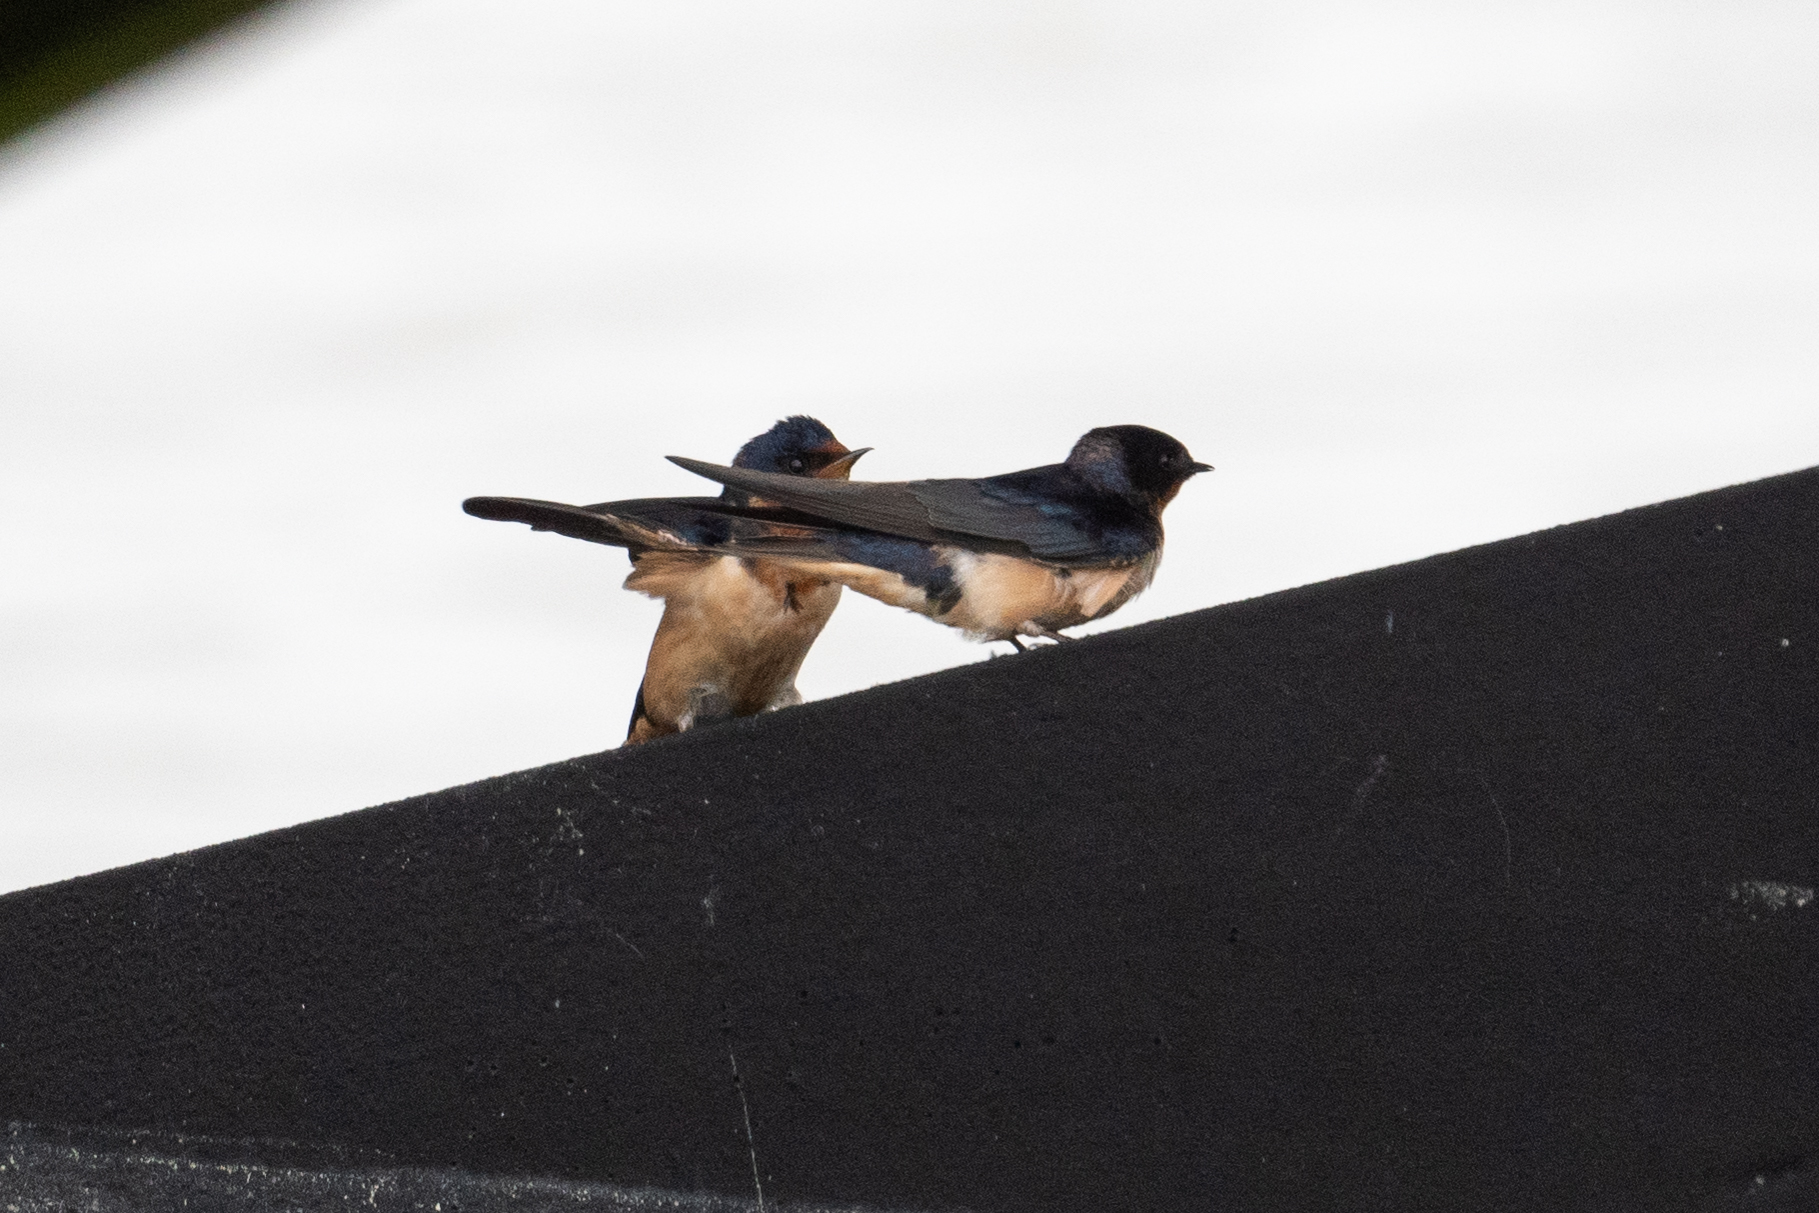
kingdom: Animalia
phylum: Chordata
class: Aves
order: Passeriformes
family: Hirundinidae
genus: Hirundo
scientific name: Hirundo rustica
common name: Barn swallow
